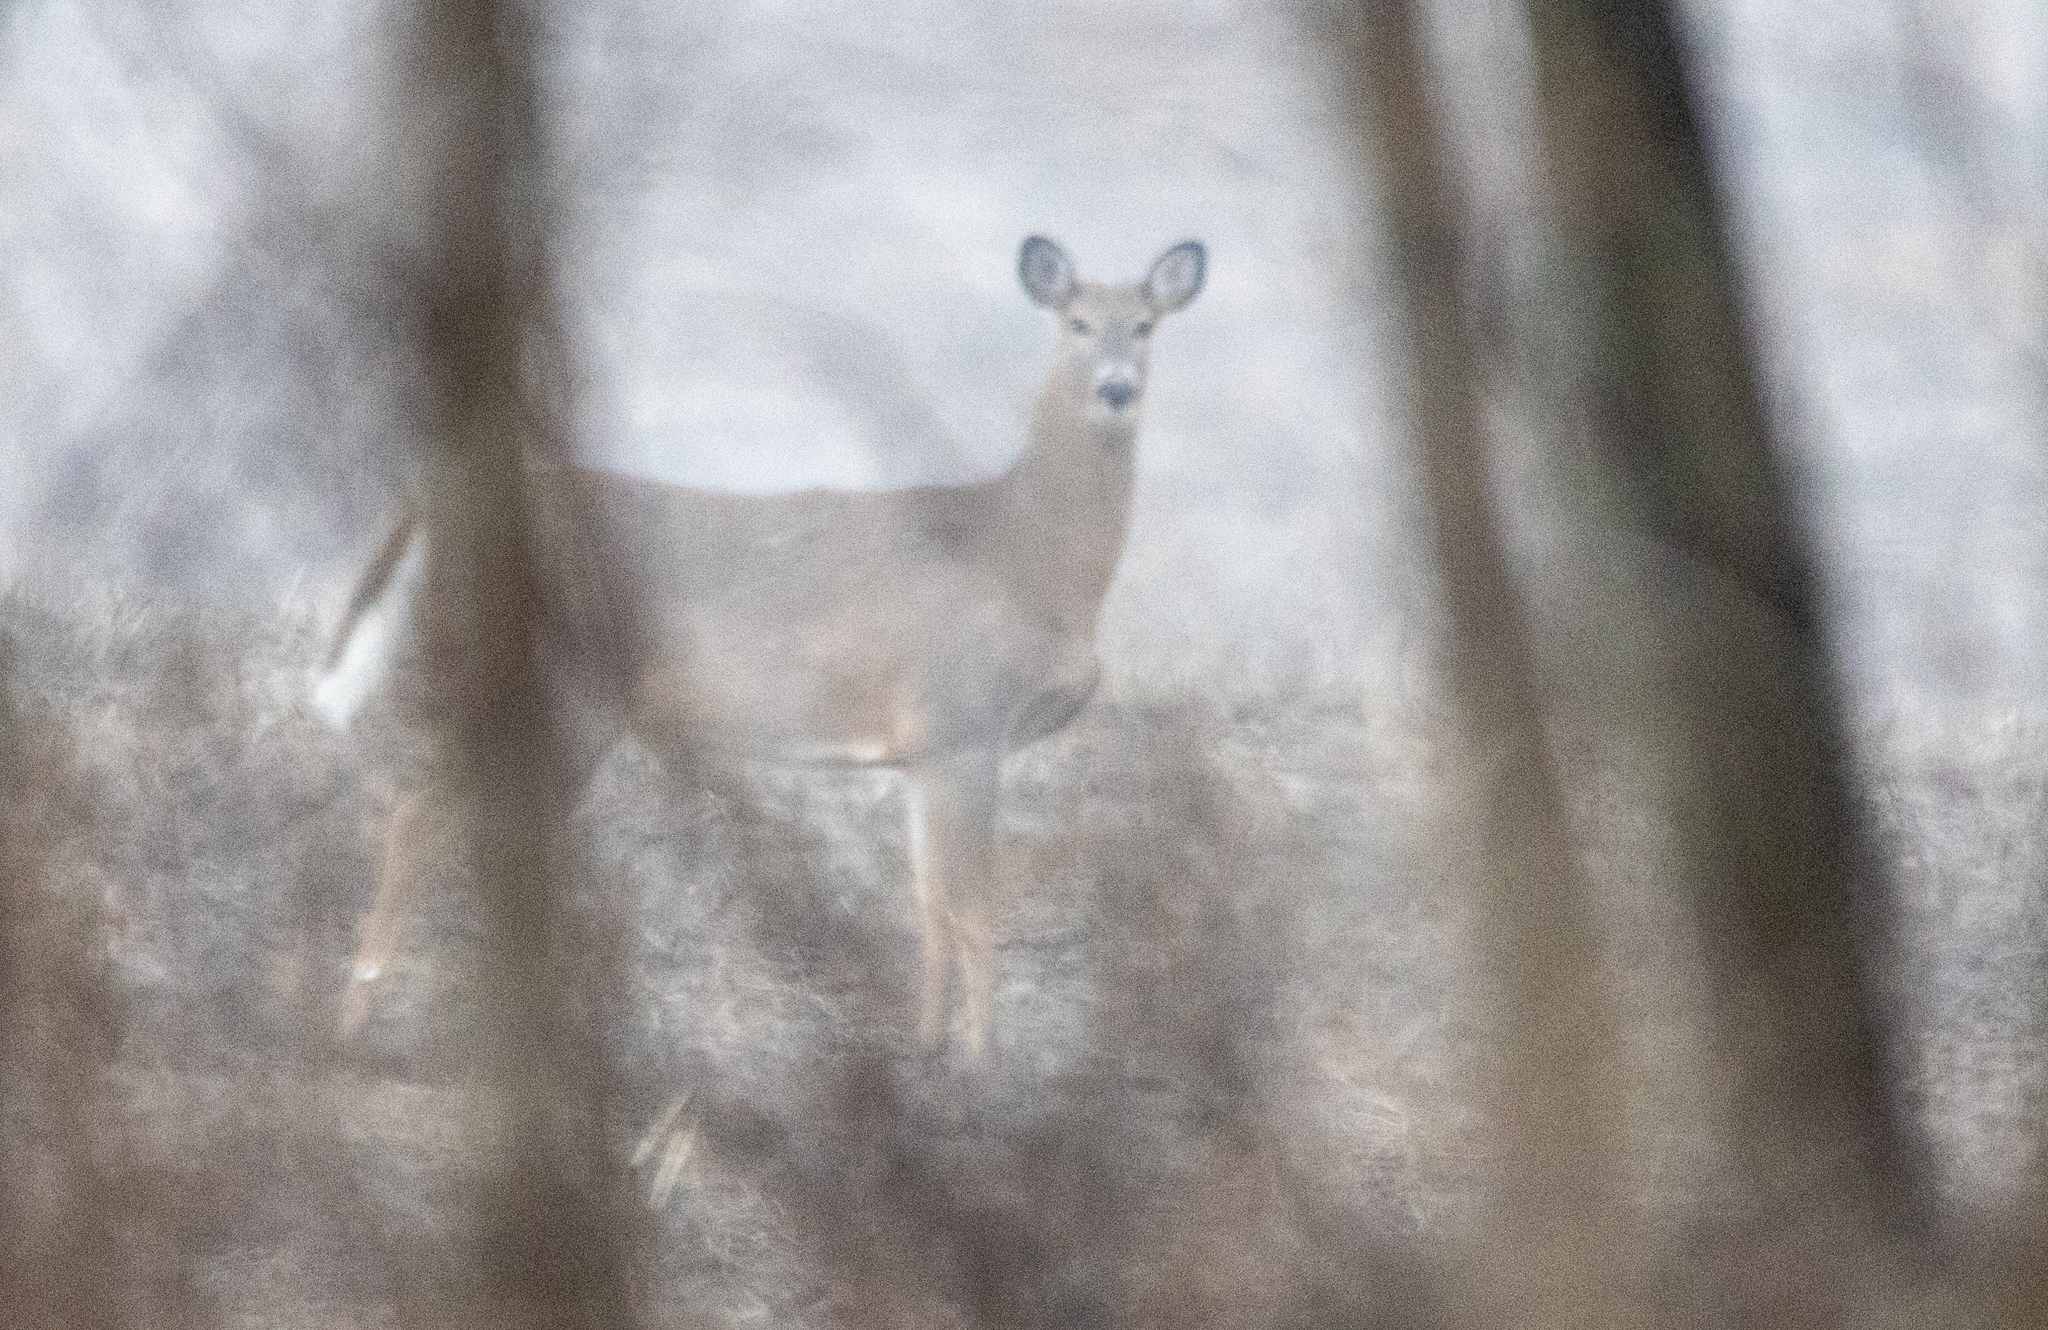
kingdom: Animalia
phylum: Chordata
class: Mammalia
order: Artiodactyla
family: Cervidae
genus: Odocoileus
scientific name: Odocoileus virginianus
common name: White-tailed deer
